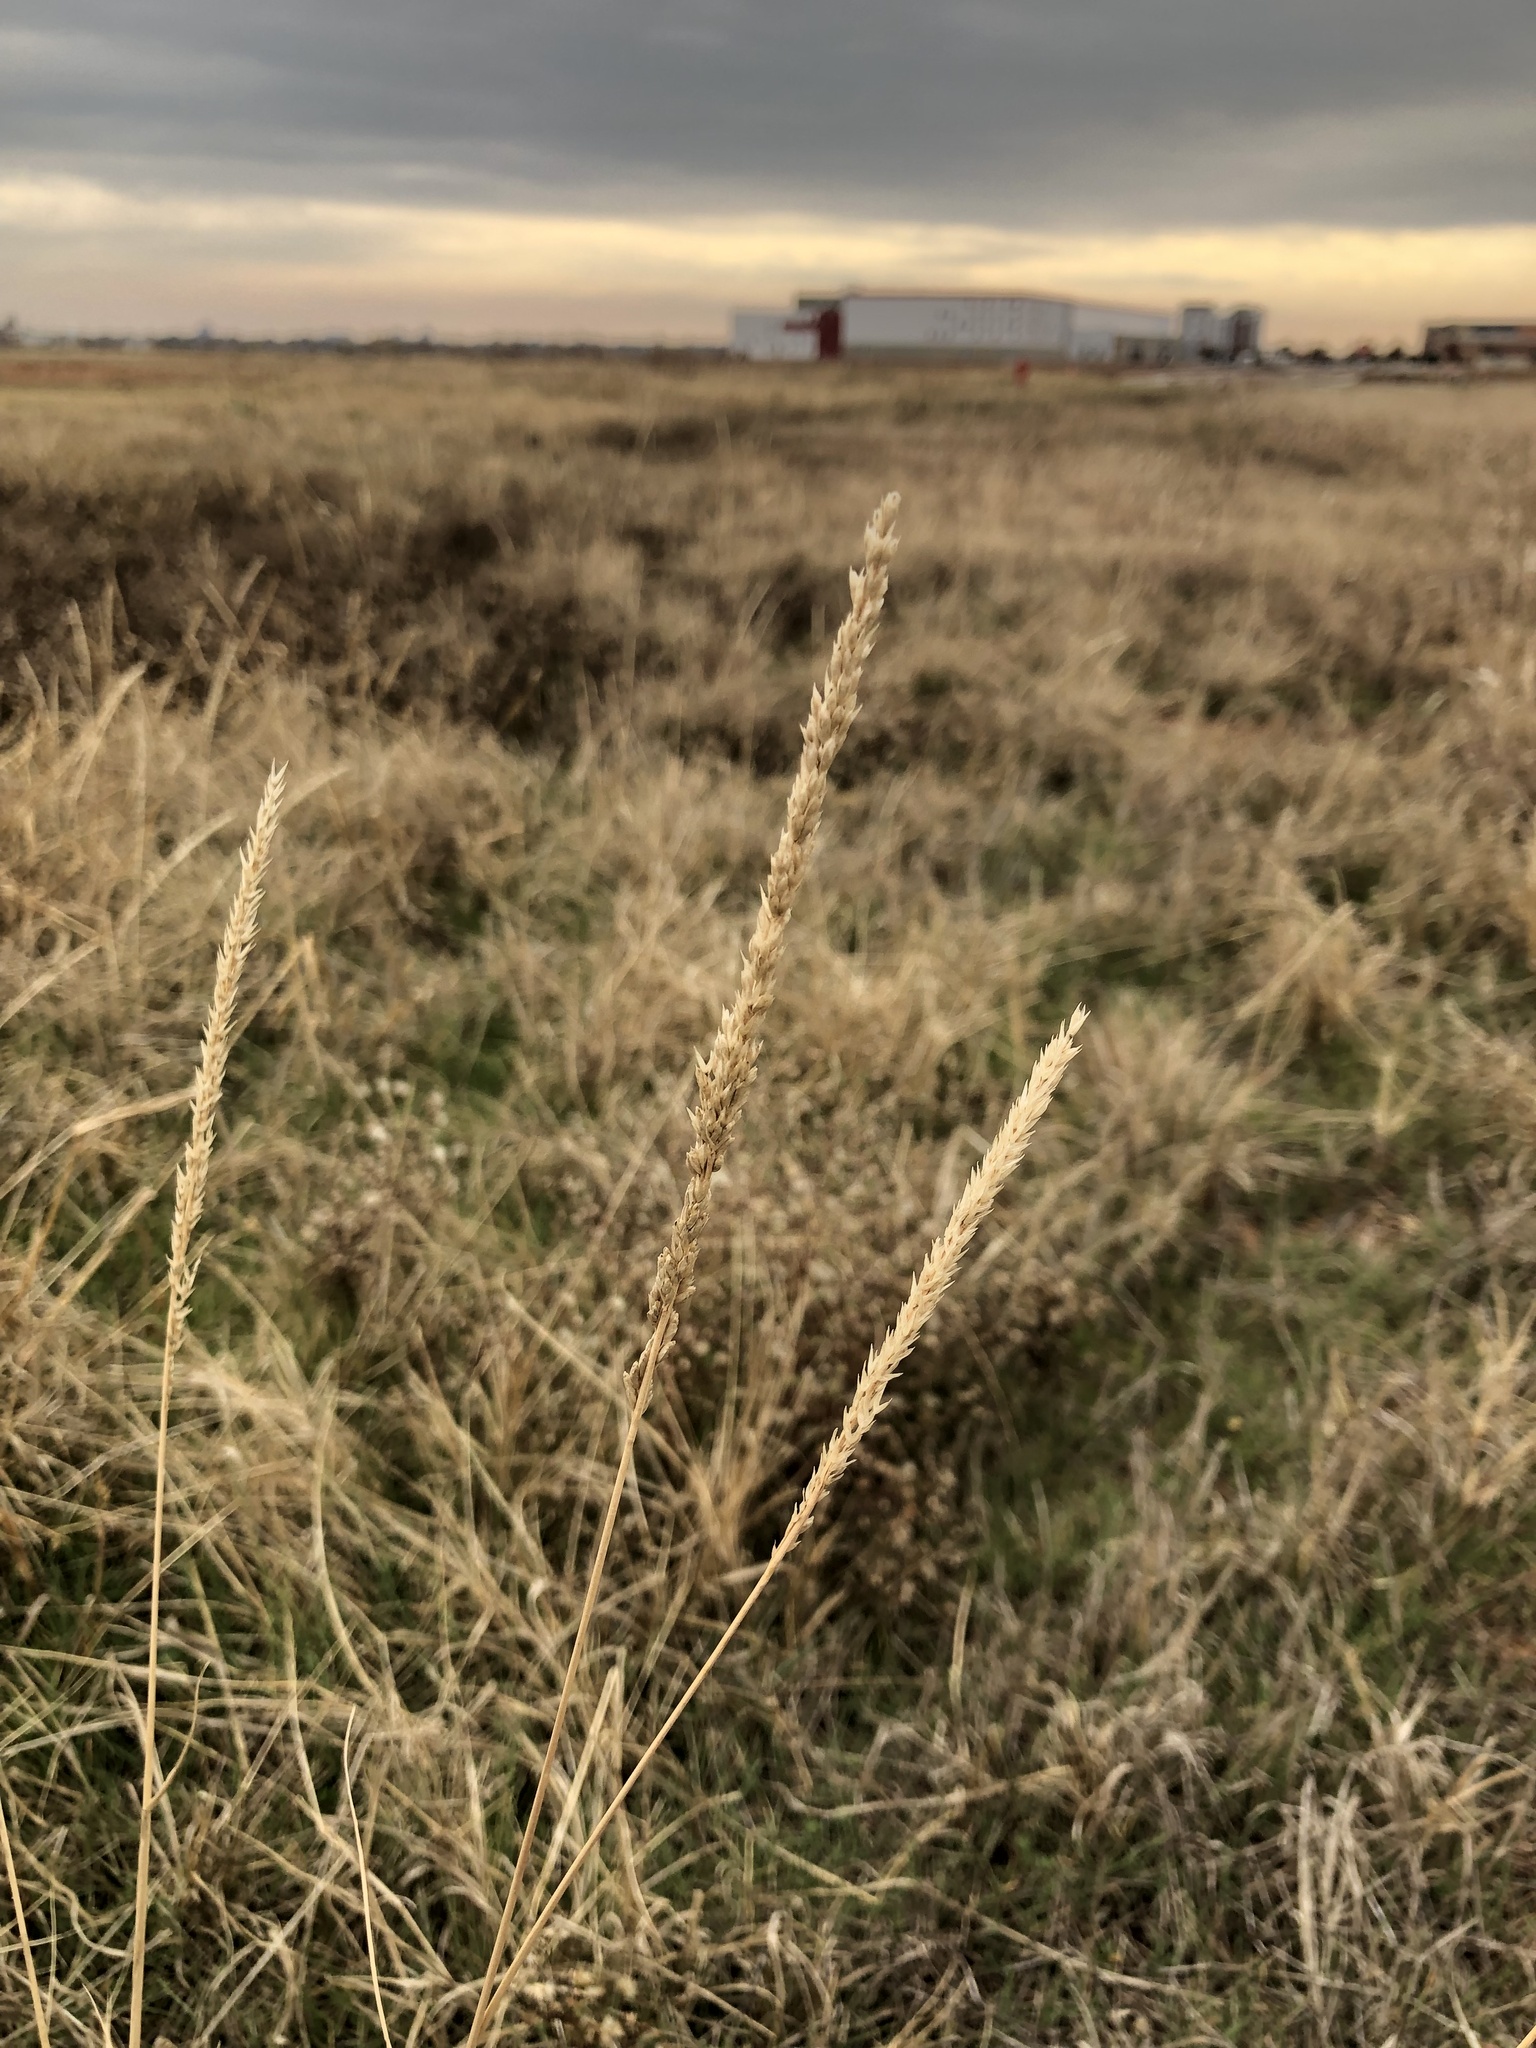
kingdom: Plantae
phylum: Tracheophyta
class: Liliopsida
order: Poales
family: Poaceae
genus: Tridens
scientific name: Tridens albescens
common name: White tridens
